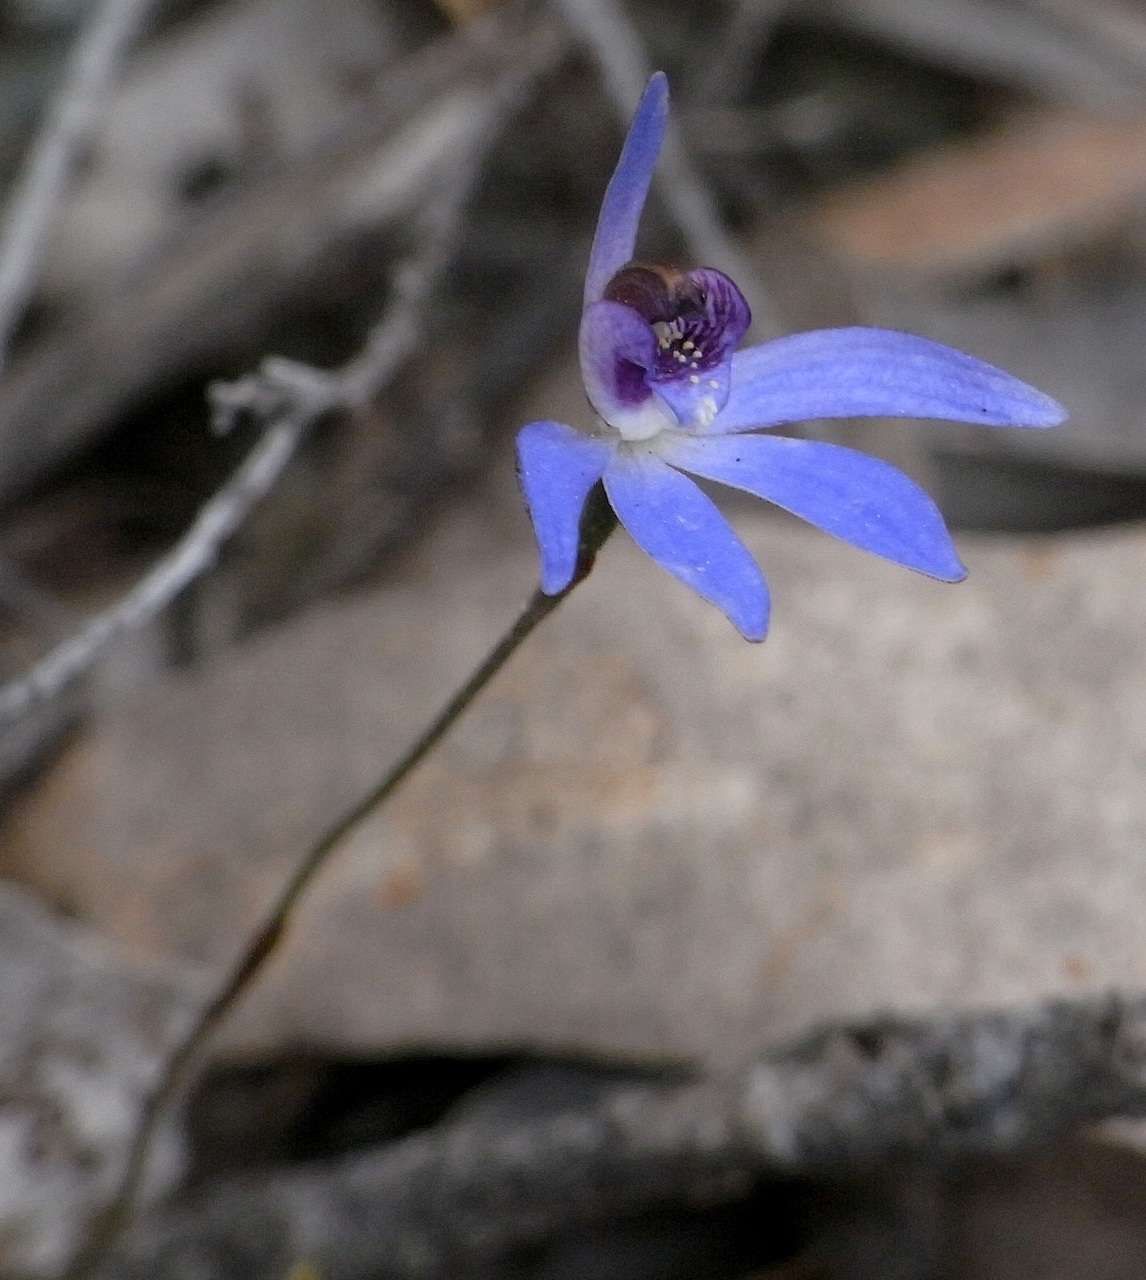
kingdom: Plantae
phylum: Tracheophyta
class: Liliopsida
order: Asparagales
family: Orchidaceae
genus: Caladenia
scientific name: Caladenia caerulea
